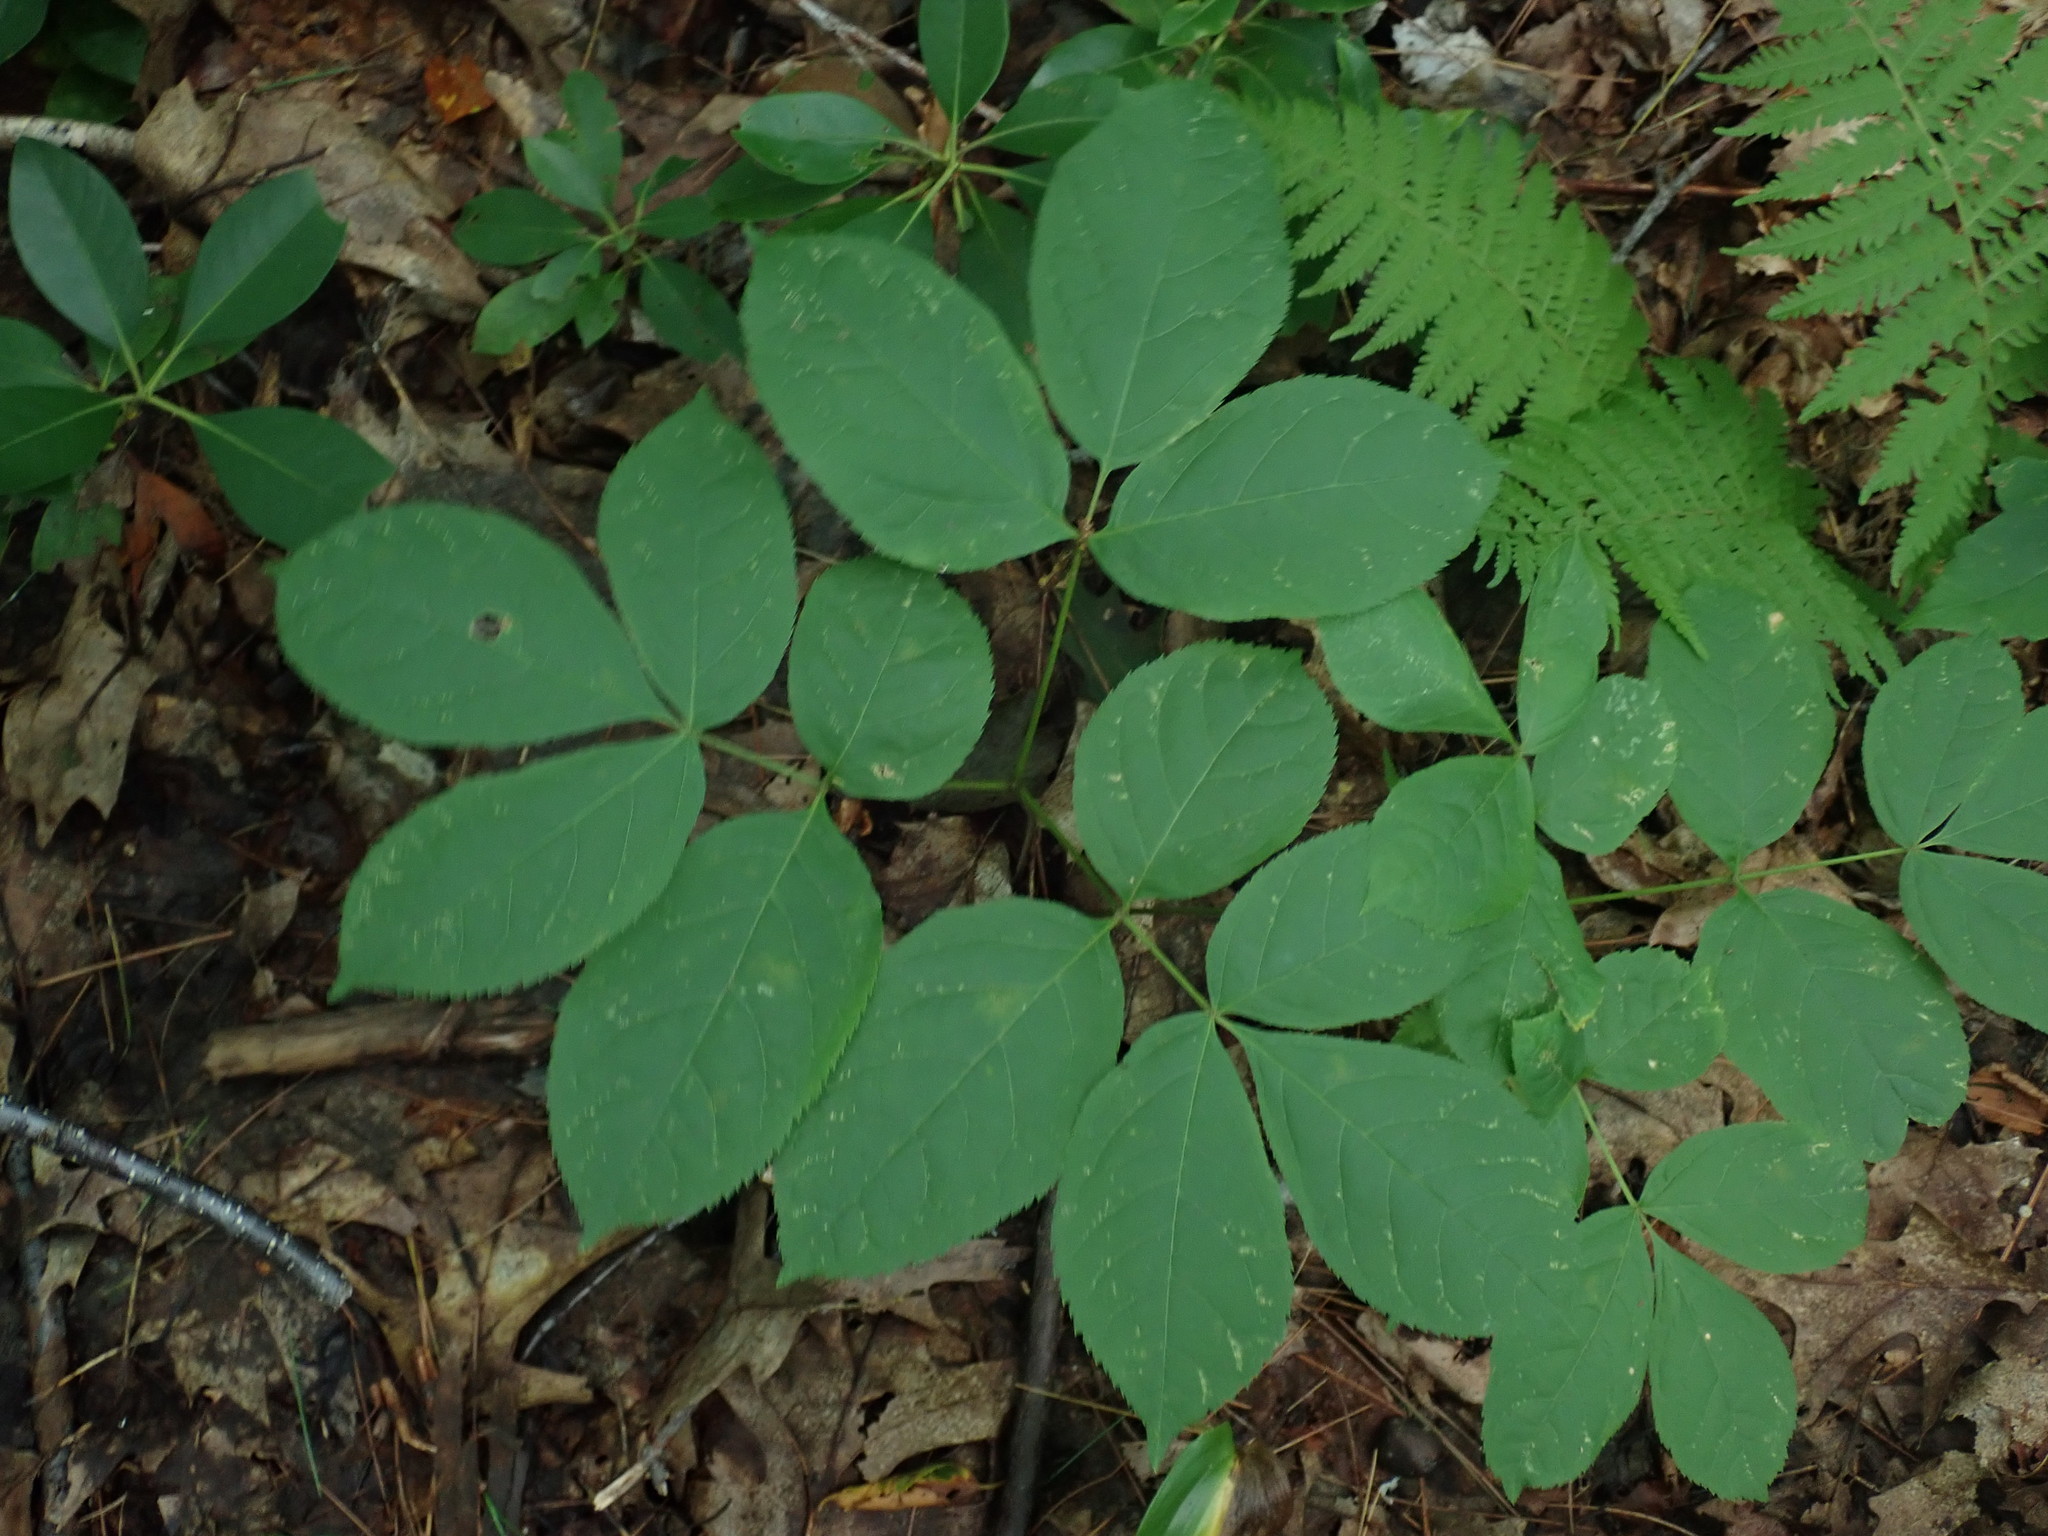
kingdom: Plantae
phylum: Tracheophyta
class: Magnoliopsida
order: Apiales
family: Araliaceae
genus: Aralia
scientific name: Aralia nudicaulis
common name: Wild sarsaparilla
